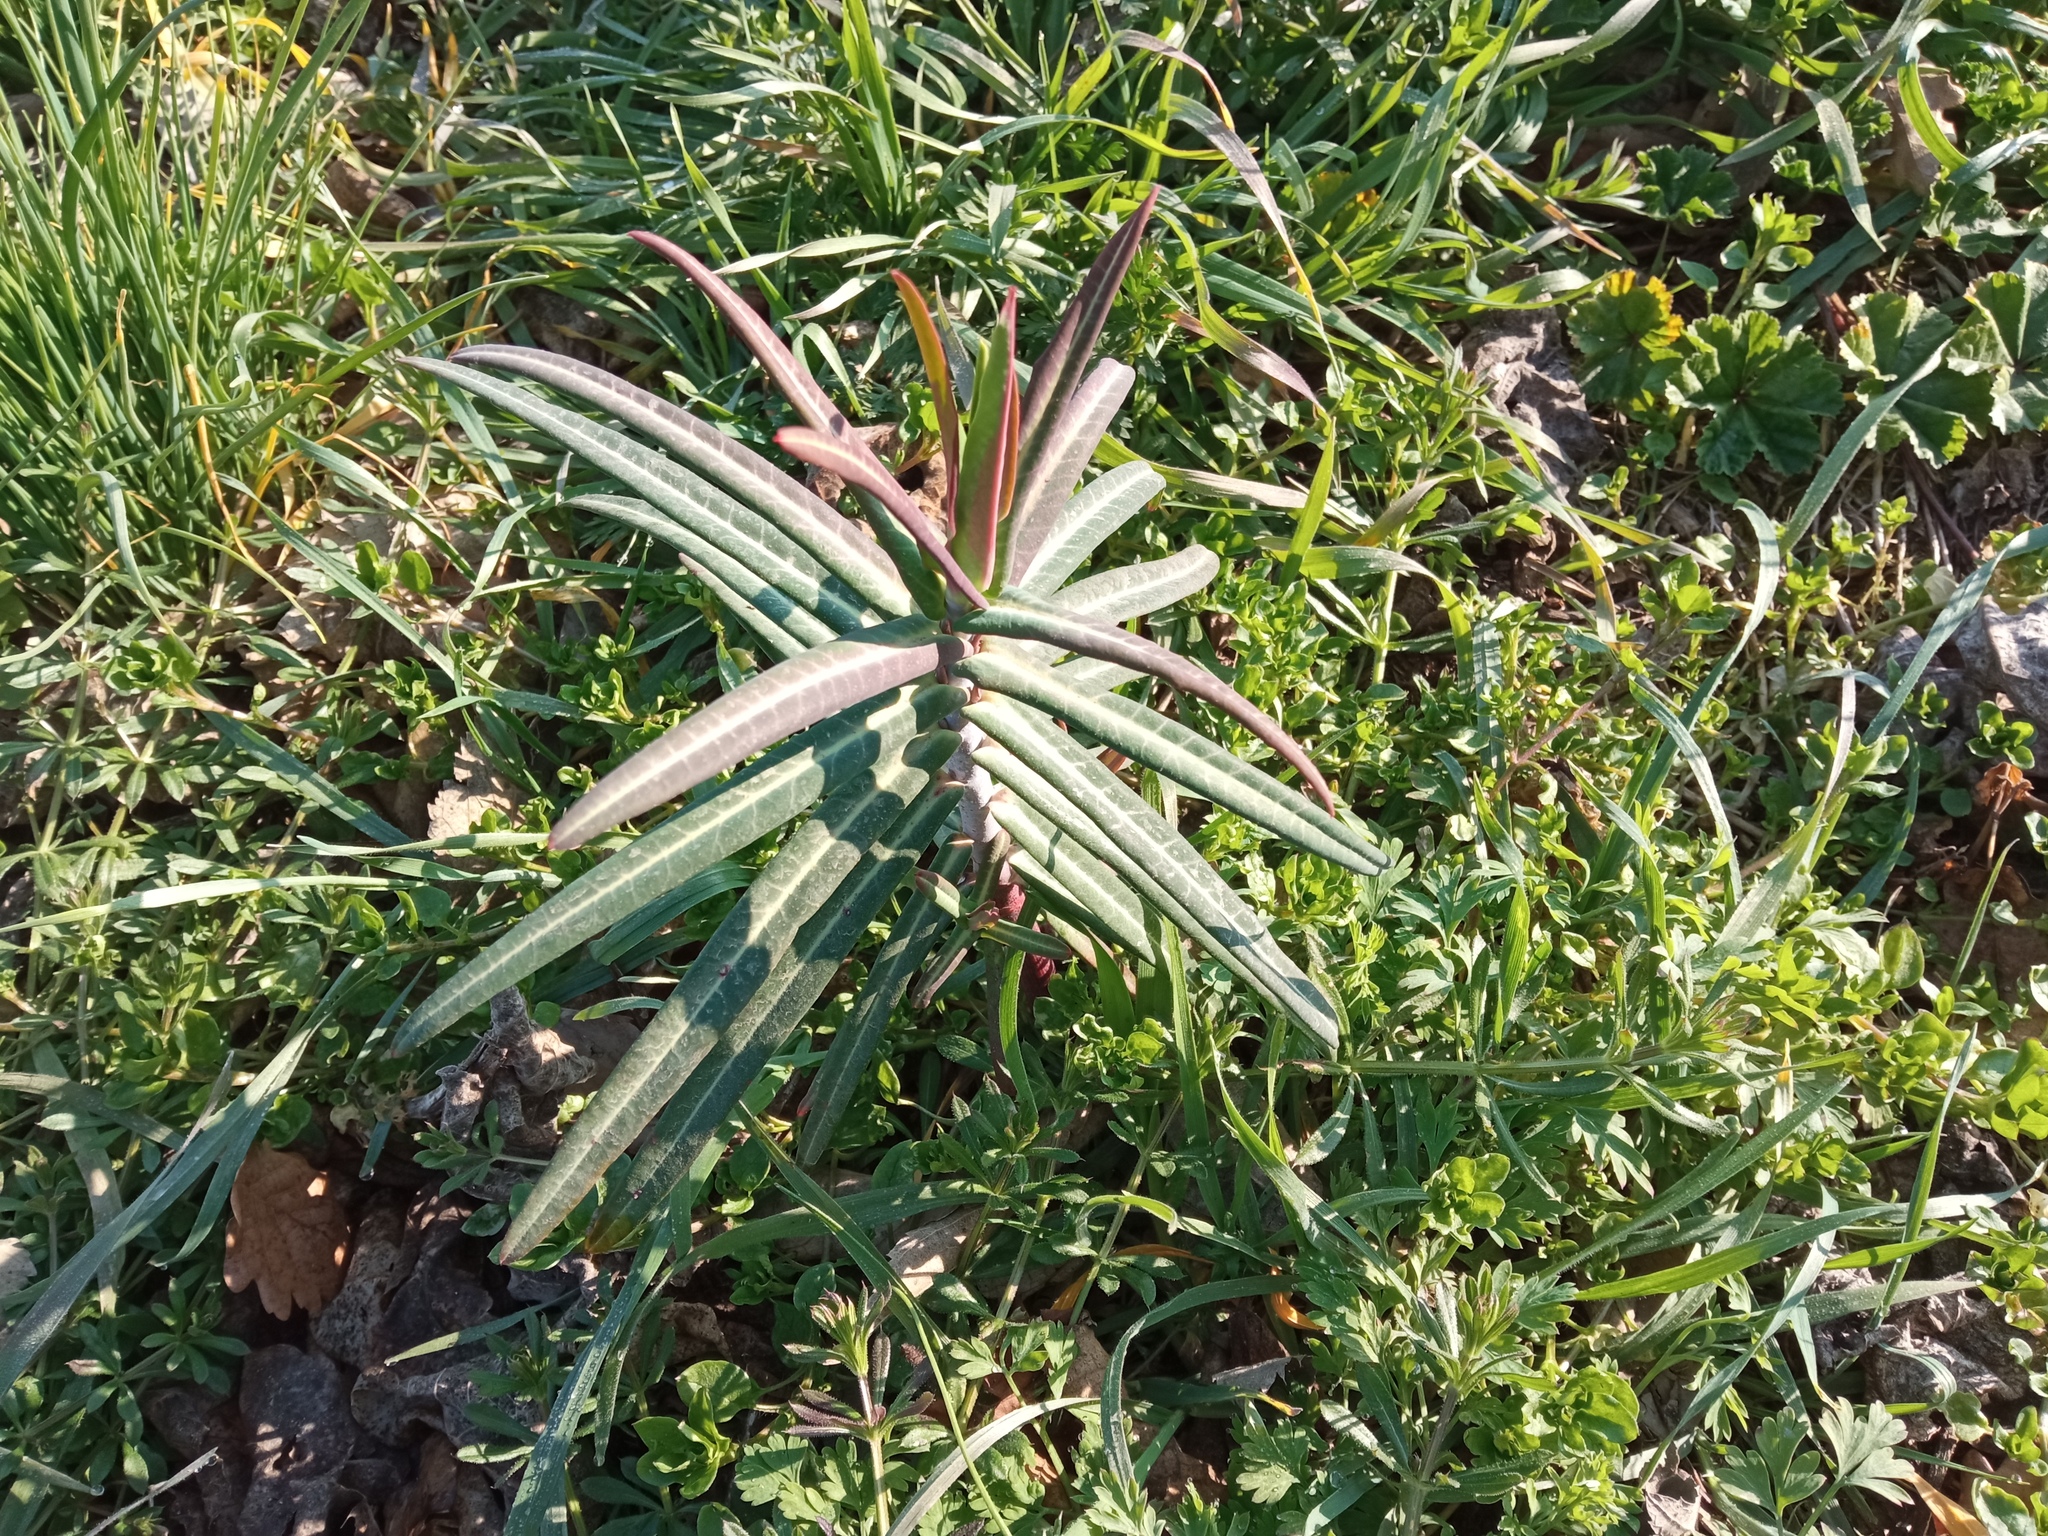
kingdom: Plantae
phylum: Tracheophyta
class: Magnoliopsida
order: Malpighiales
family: Euphorbiaceae
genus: Euphorbia
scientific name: Euphorbia lathyris
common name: Caper spurge
